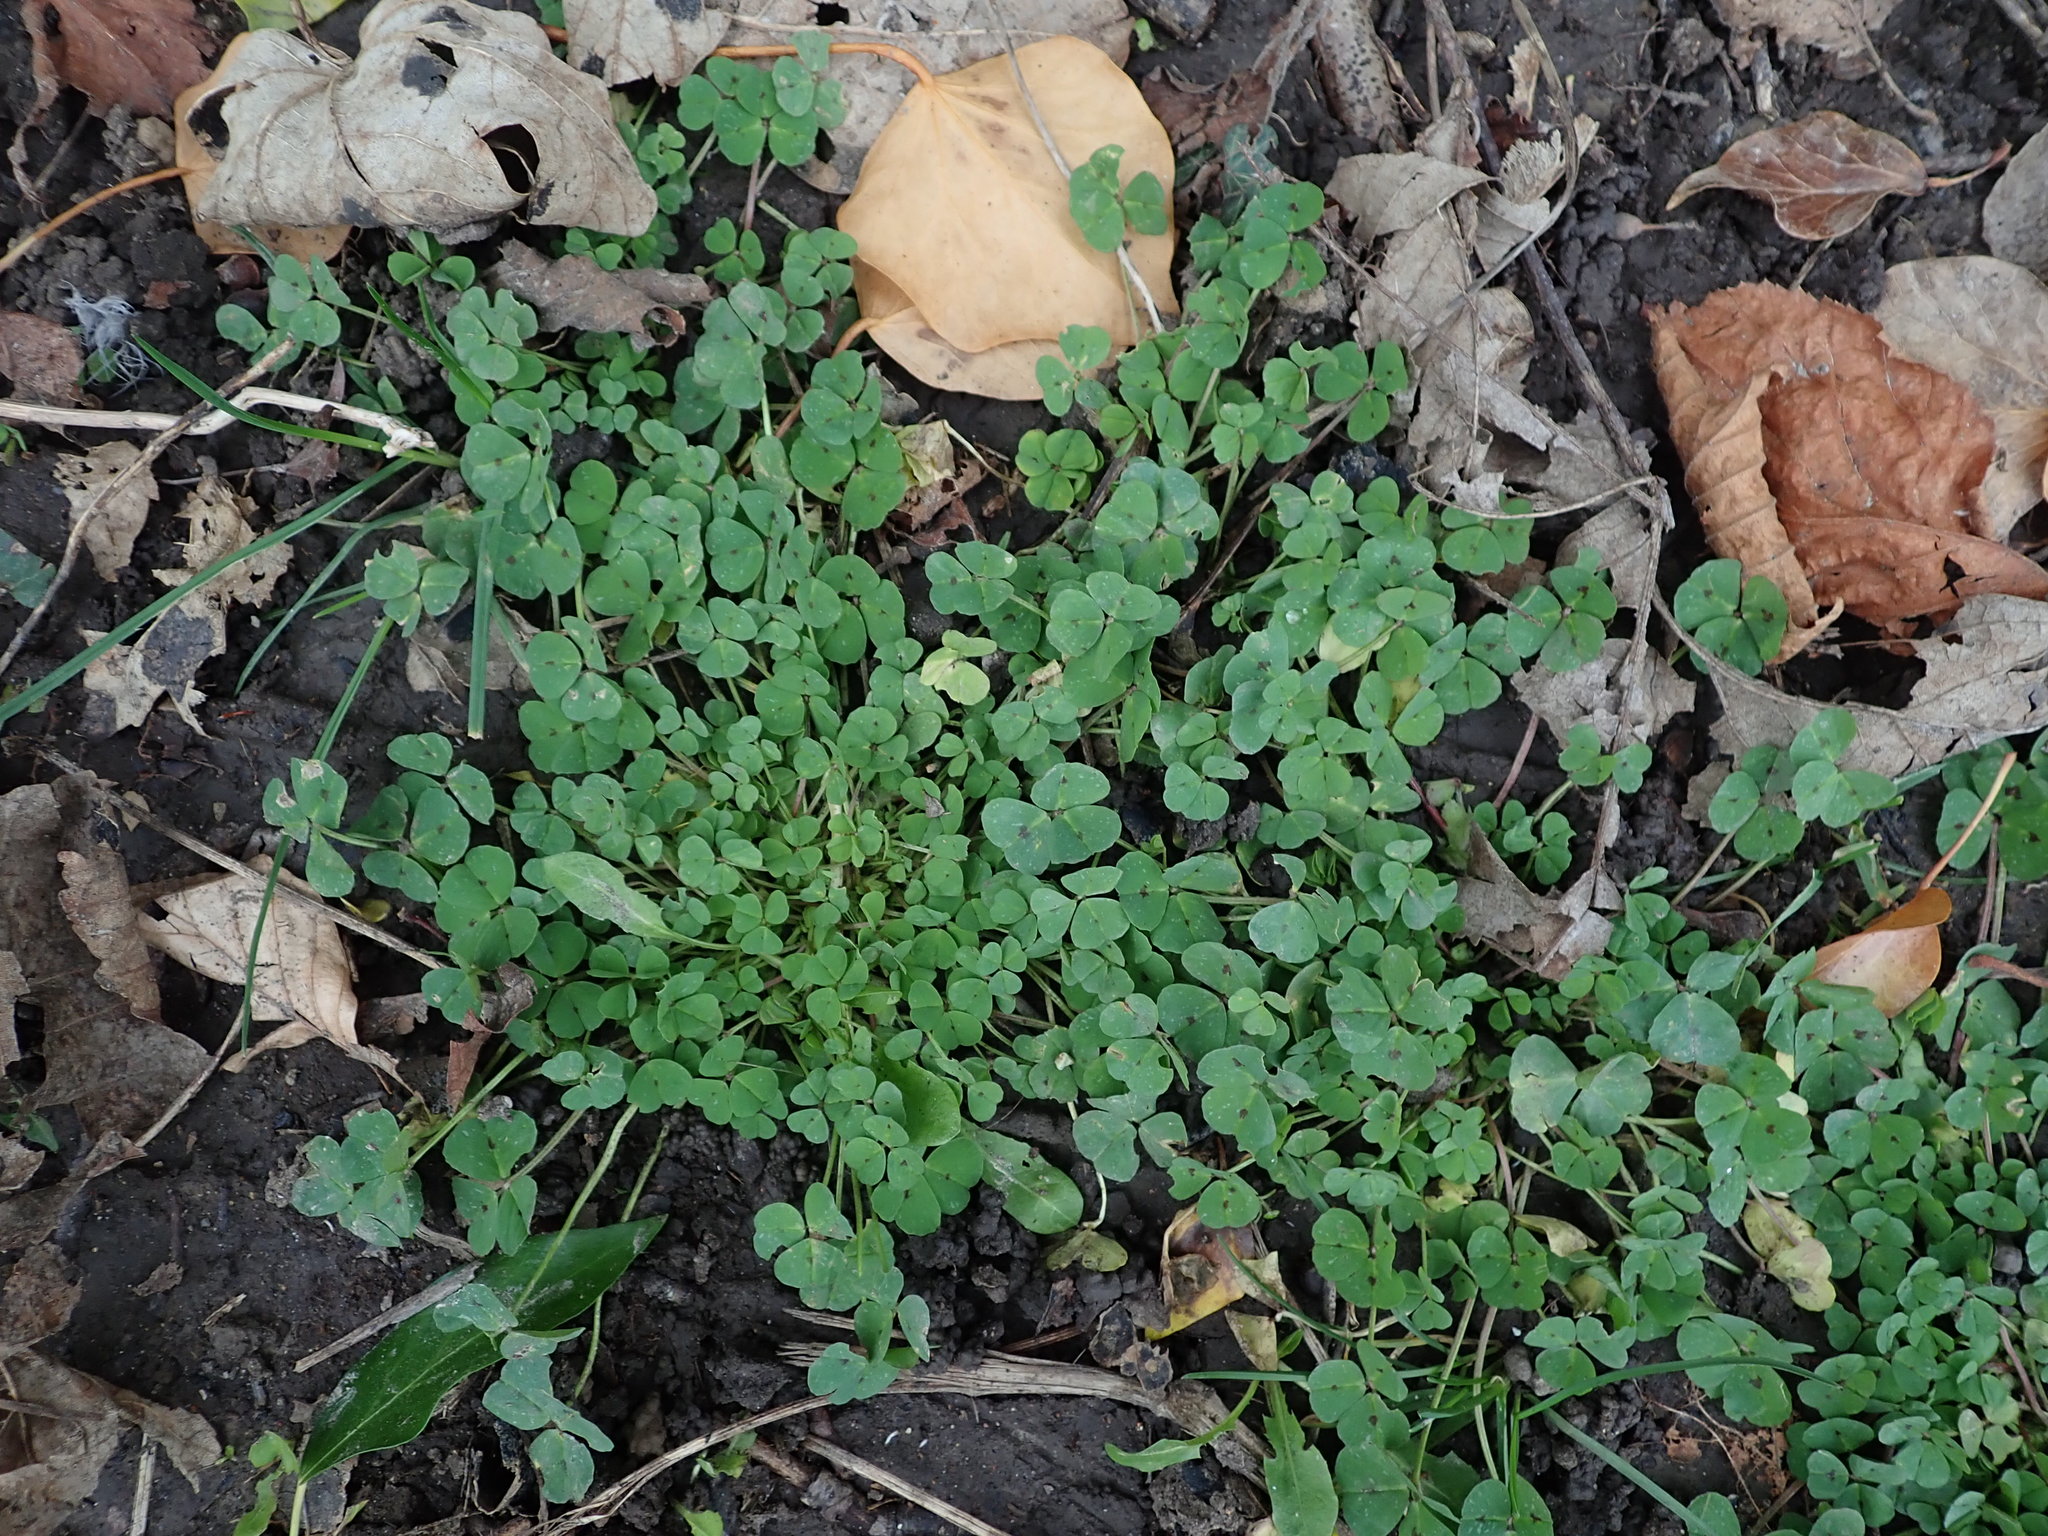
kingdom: Plantae
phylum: Tracheophyta
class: Magnoliopsida
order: Fabales
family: Fabaceae
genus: Medicago
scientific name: Medicago arabica
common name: Spotted medick
